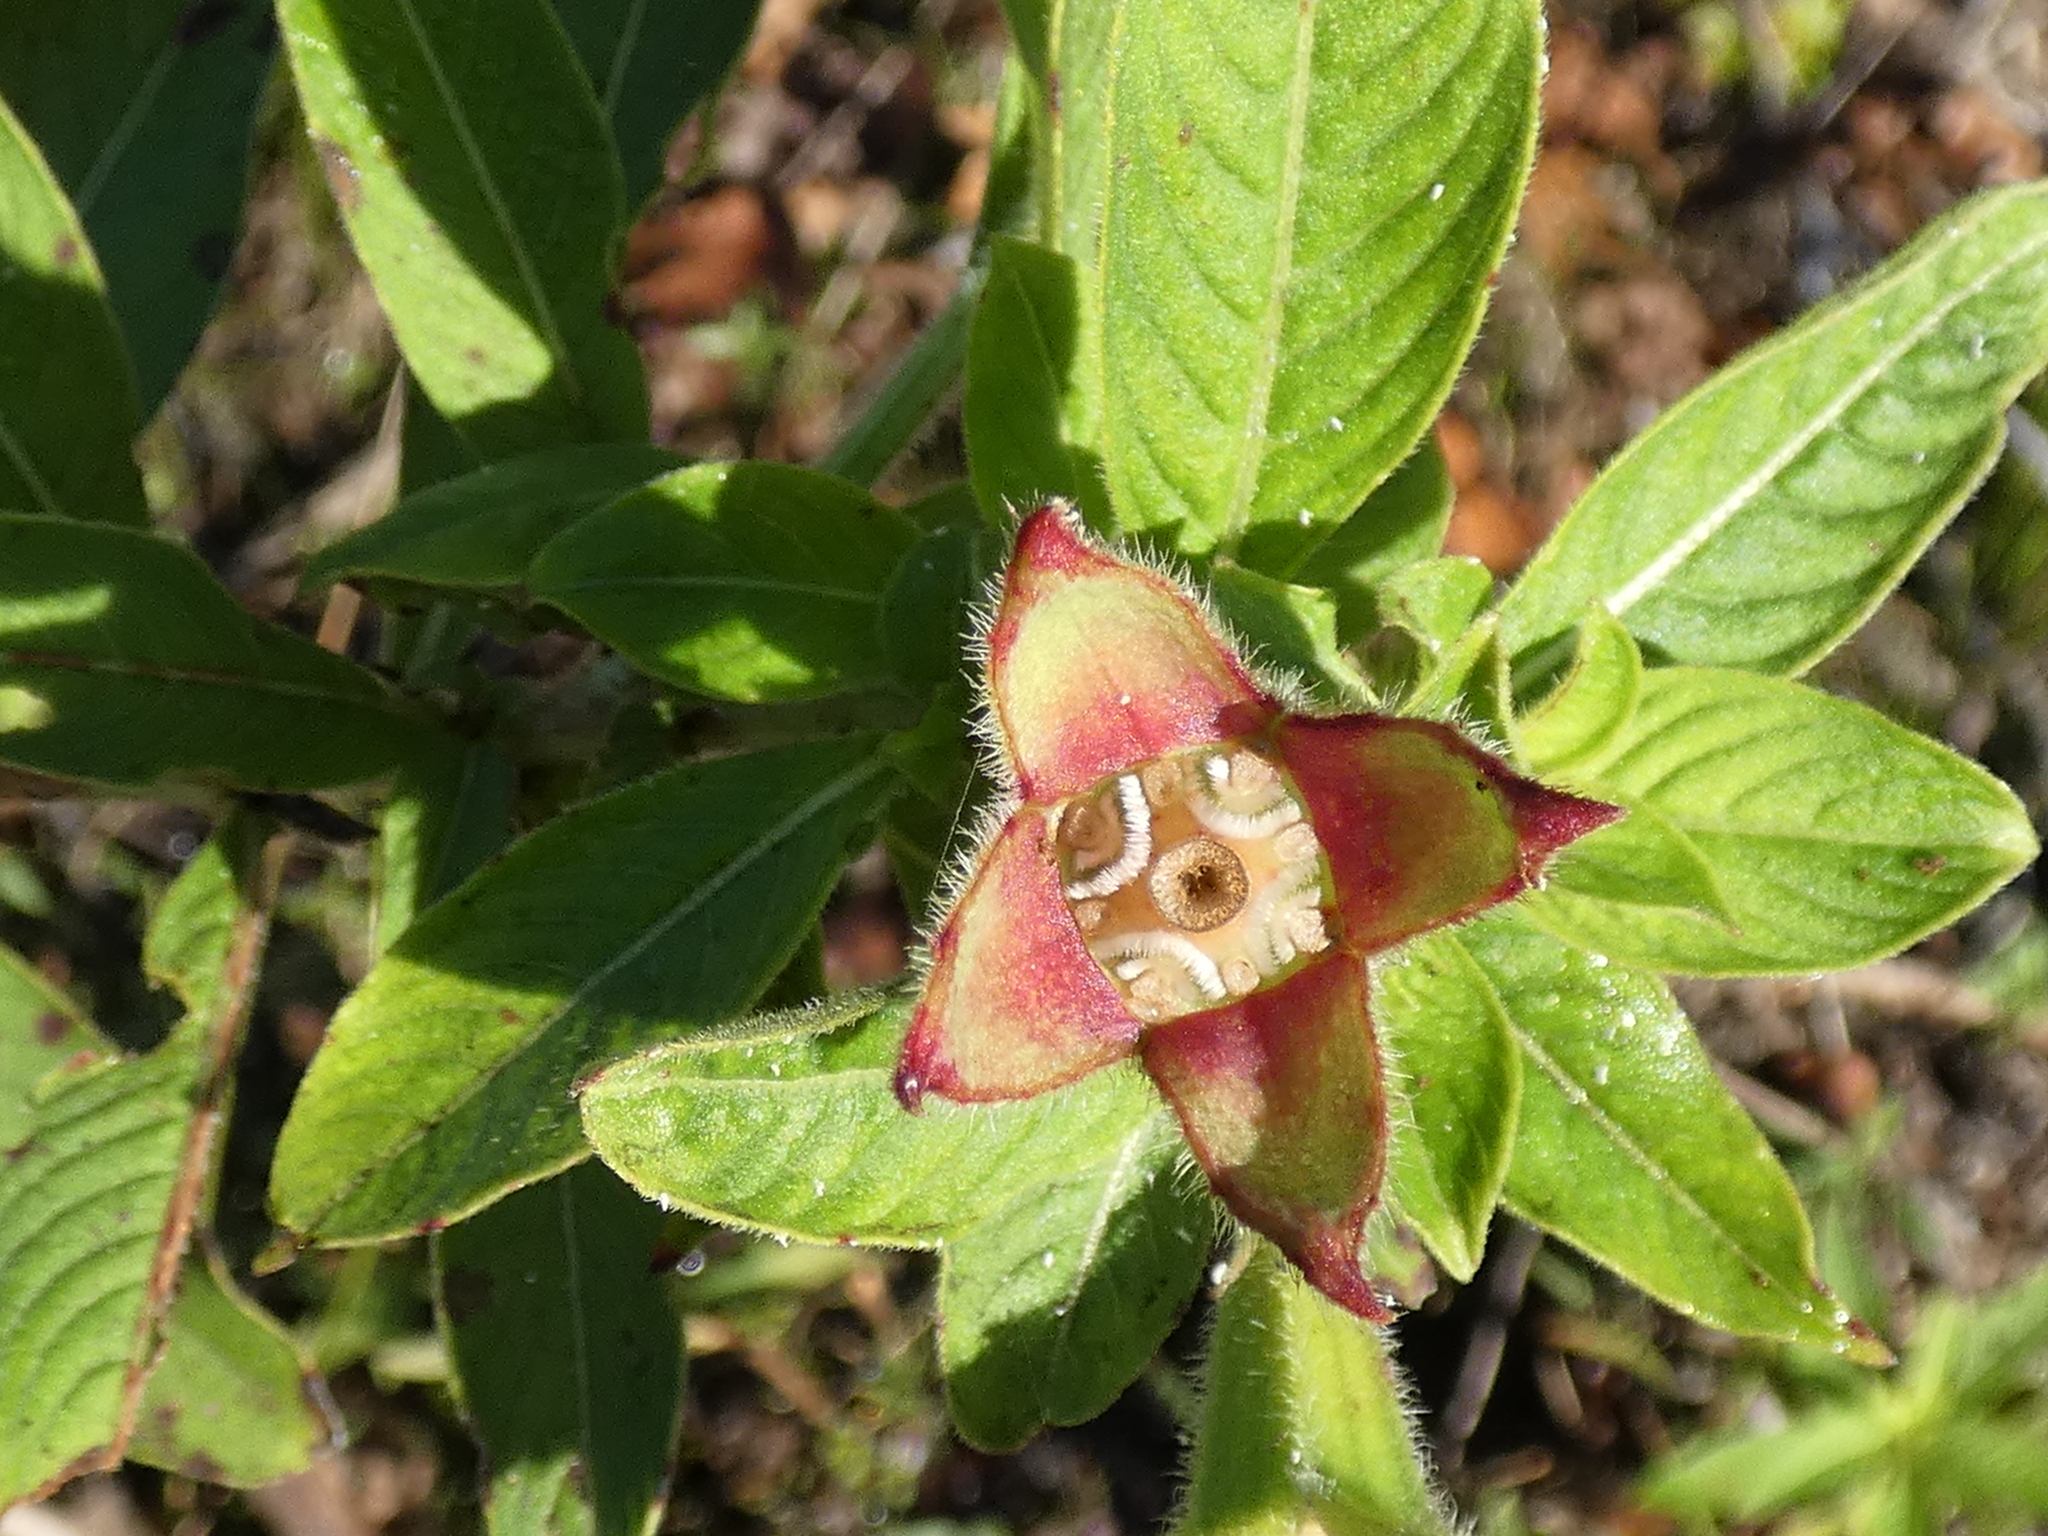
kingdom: Plantae
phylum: Tracheophyta
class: Magnoliopsida
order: Myrtales
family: Onagraceae
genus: Ludwigia
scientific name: Ludwigia peruviana
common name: Peruvian primrose-willow
